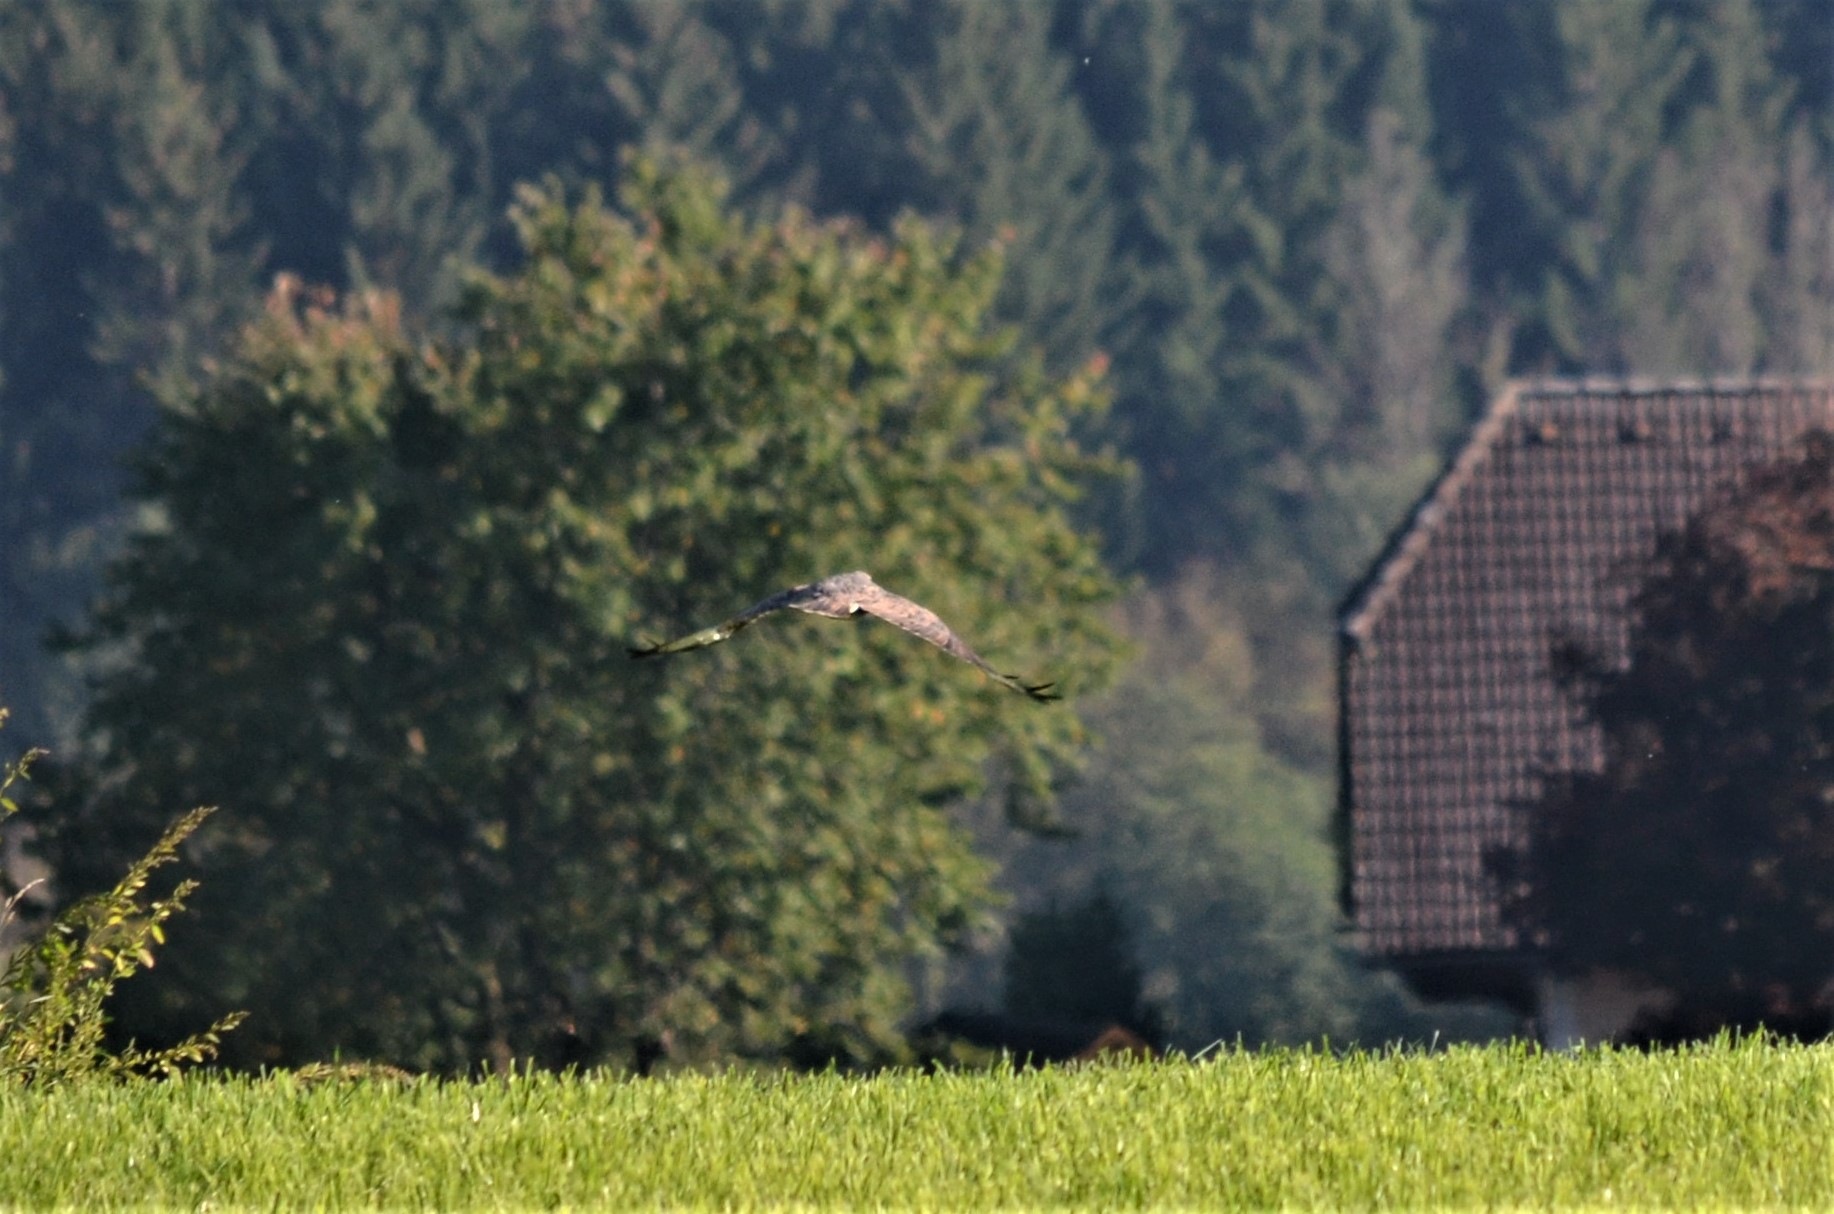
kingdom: Animalia
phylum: Chordata
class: Aves
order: Accipitriformes
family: Accipitridae
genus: Buteo
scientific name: Buteo buteo
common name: Common buzzard
